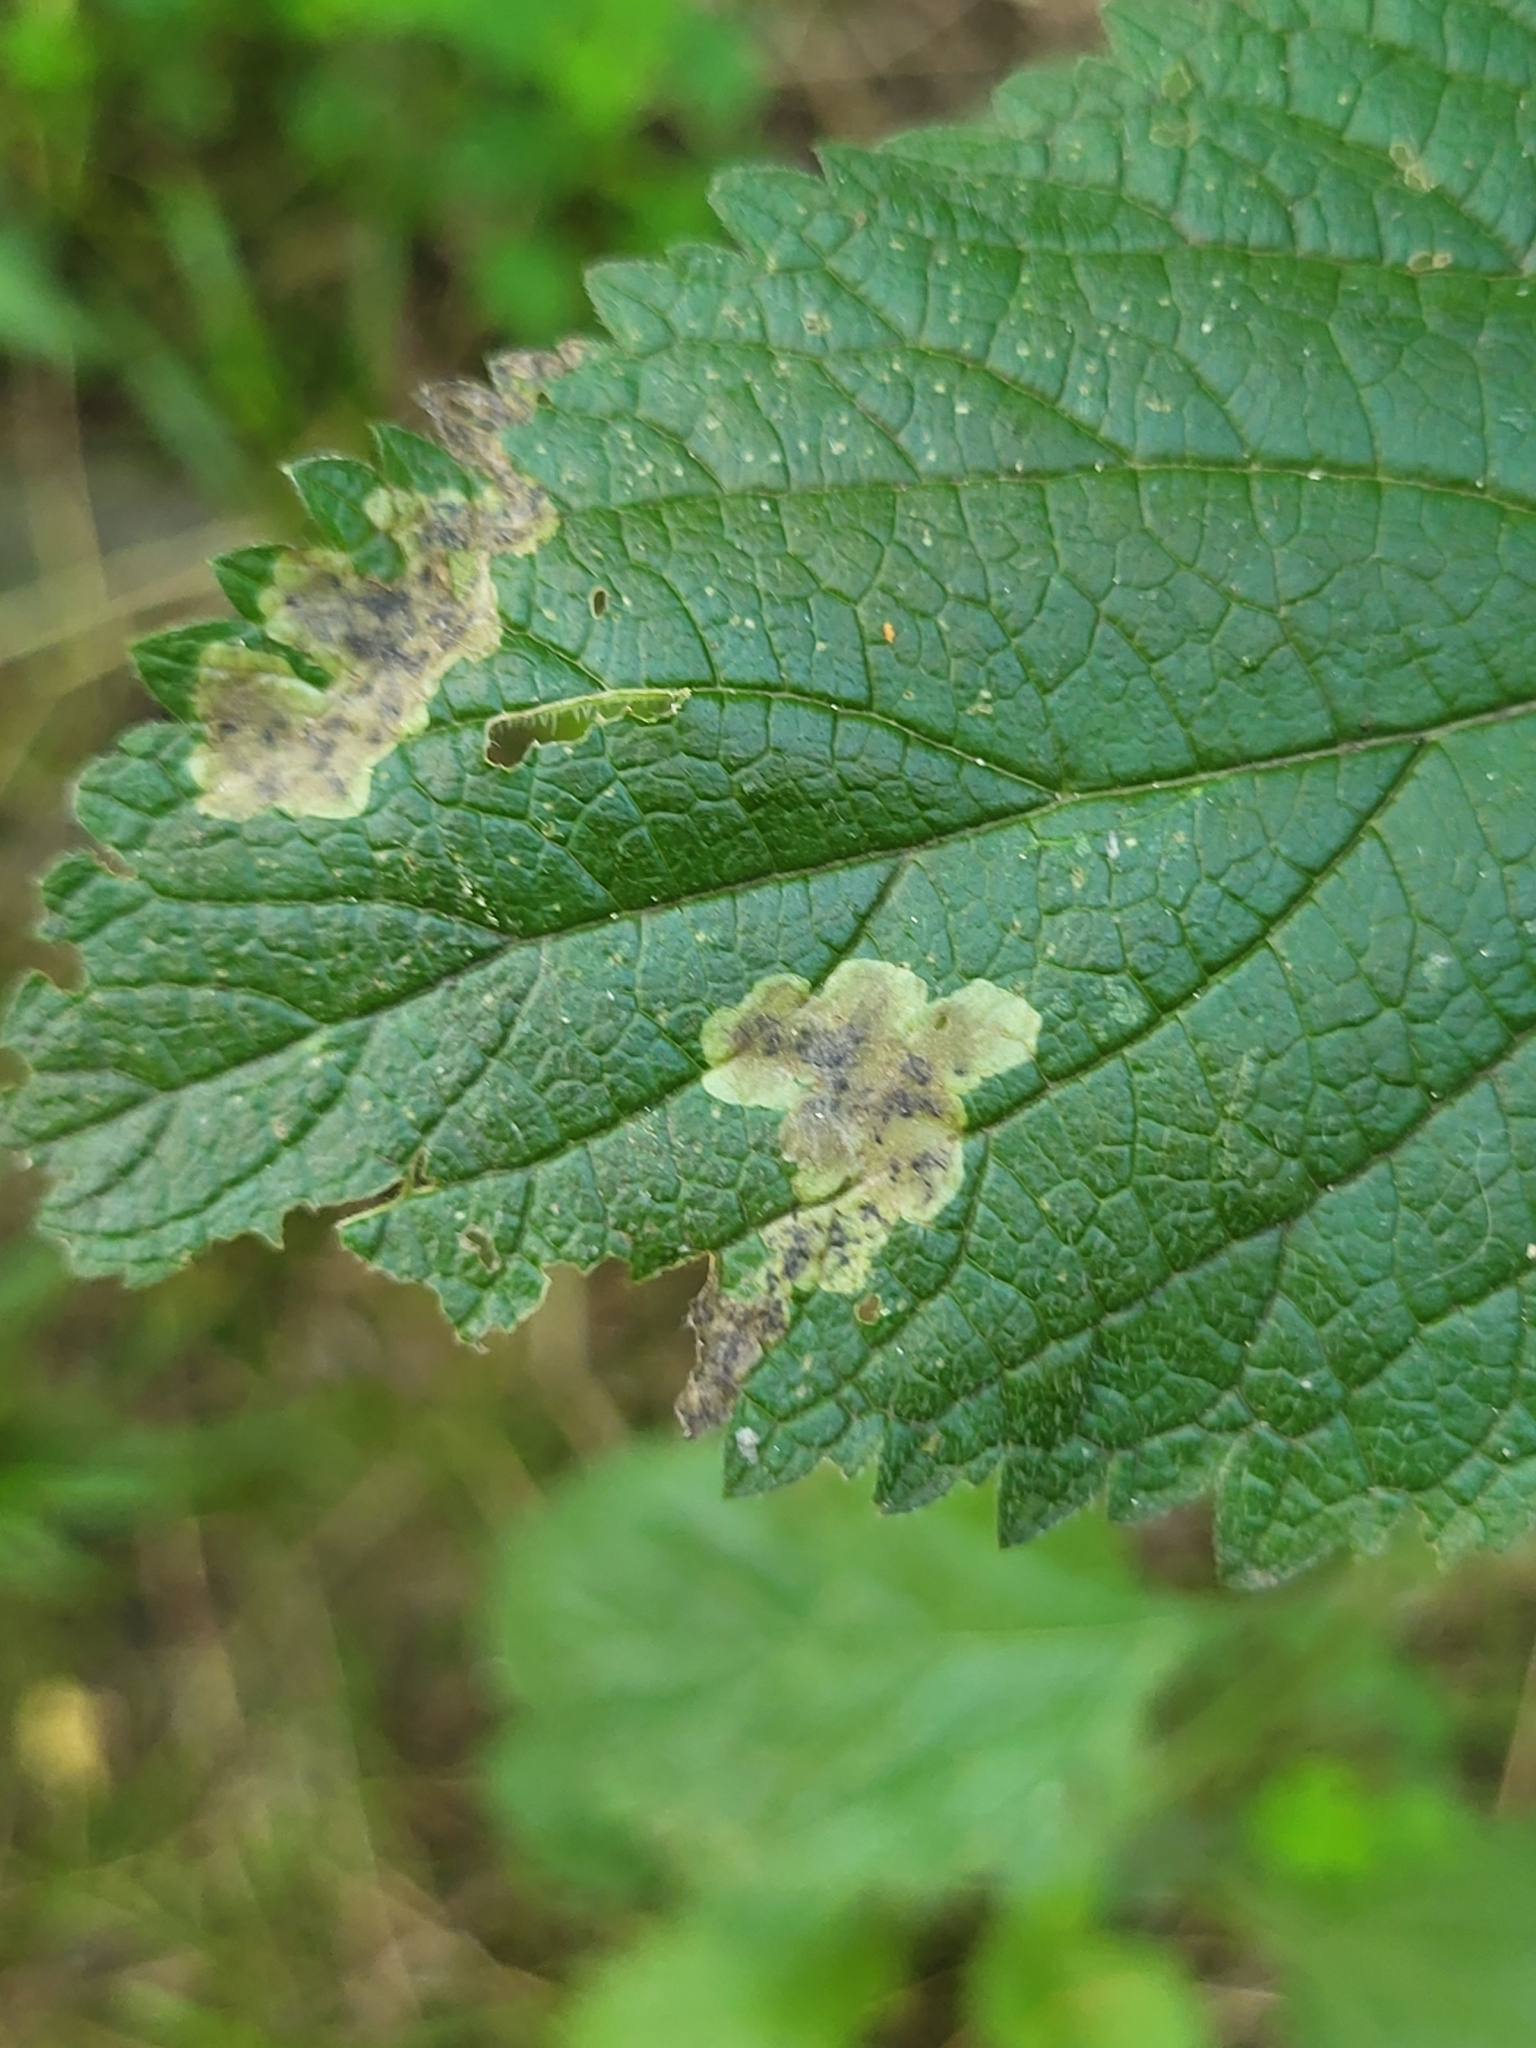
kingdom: Animalia
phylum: Arthropoda
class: Insecta
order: Diptera
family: Agromyzidae
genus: Calycomyza
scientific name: Calycomyza verbenae
